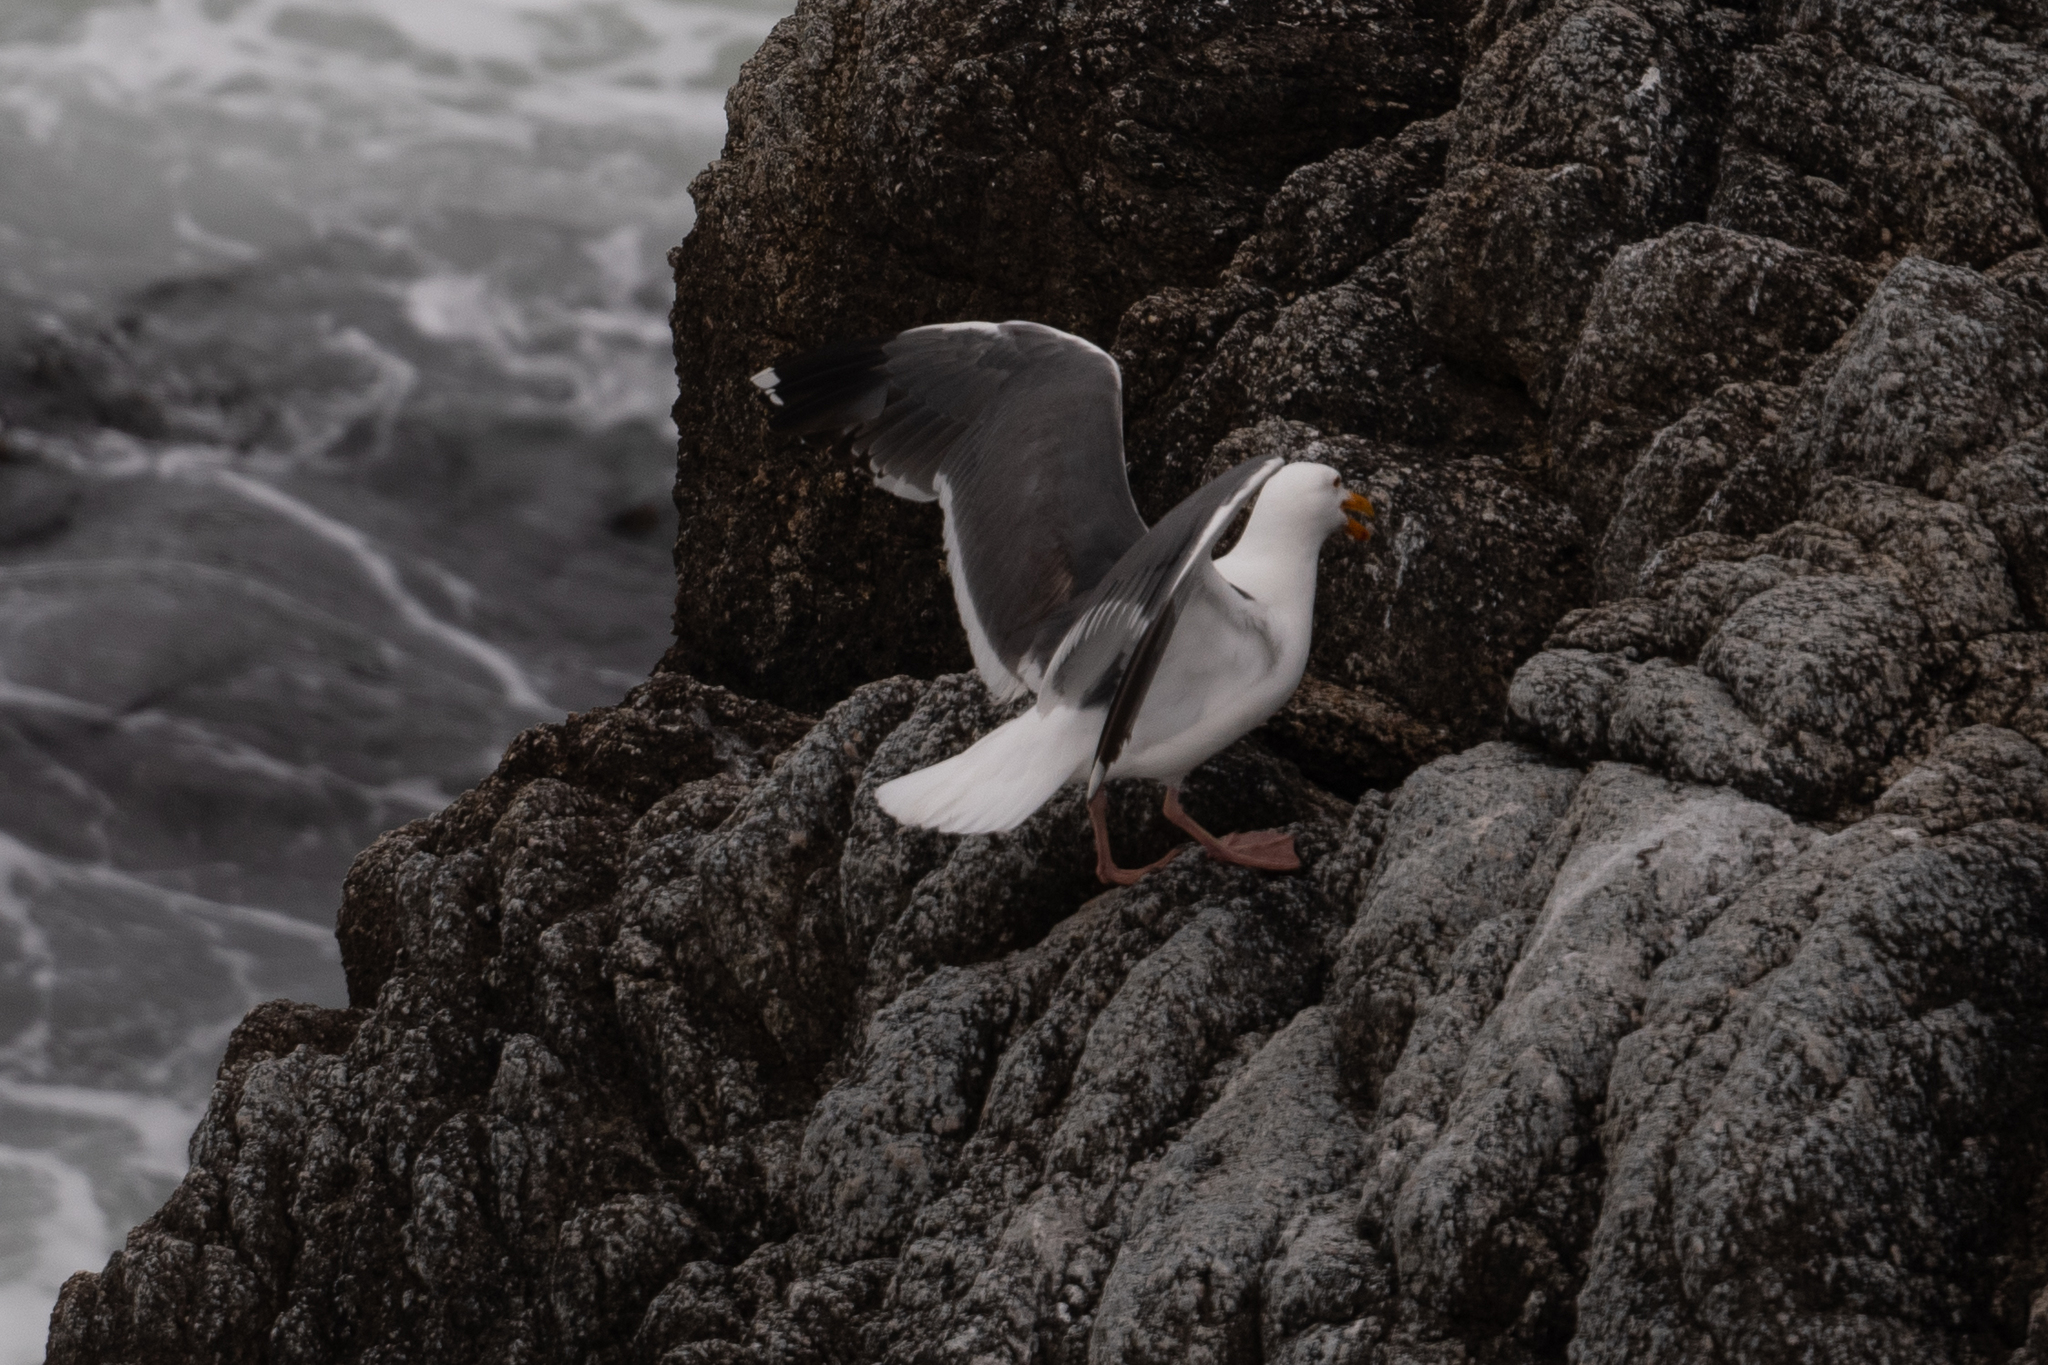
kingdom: Animalia
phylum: Chordata
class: Aves
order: Charadriiformes
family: Laridae
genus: Larus
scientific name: Larus occidentalis
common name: Western gull
